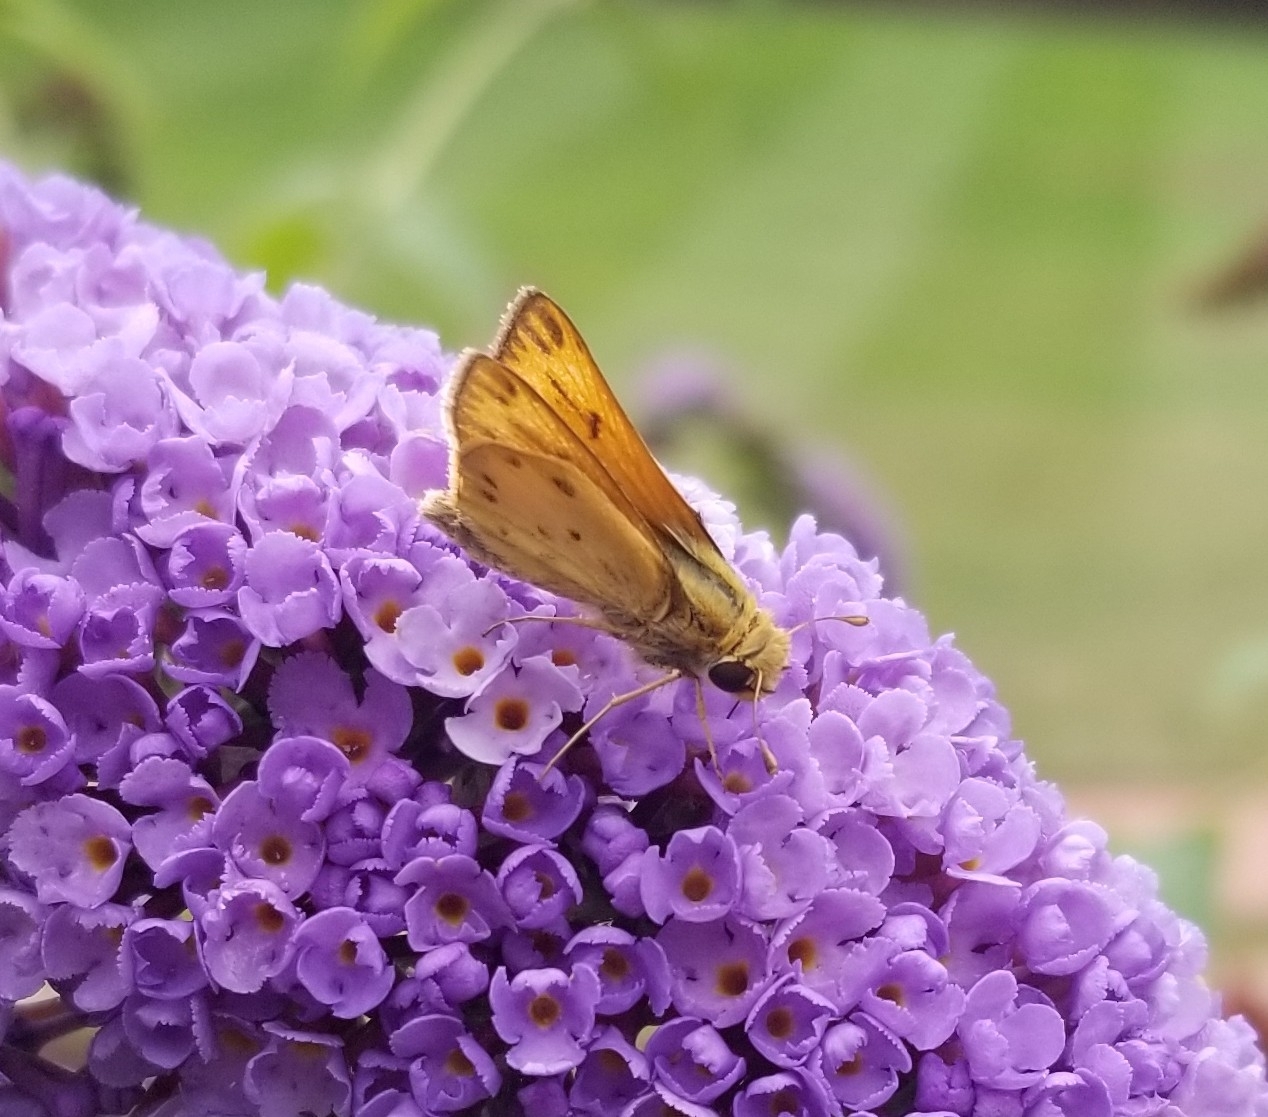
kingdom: Animalia
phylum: Arthropoda
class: Insecta
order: Lepidoptera
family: Hesperiidae
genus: Hylephila
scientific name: Hylephila phyleus
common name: Fiery skipper
